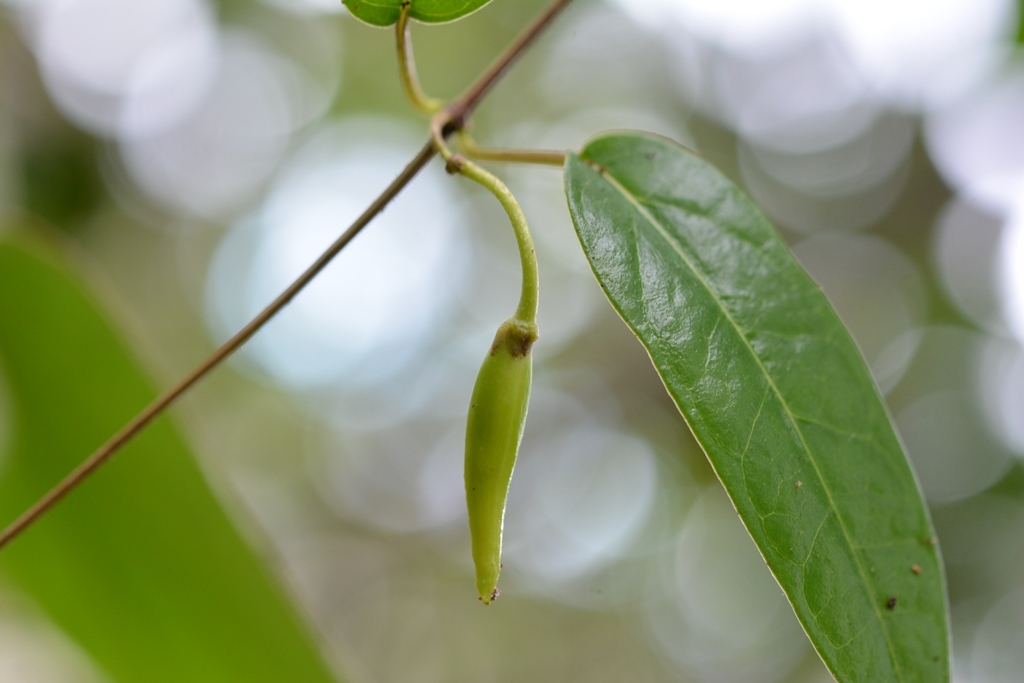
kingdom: Plantae
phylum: Tracheophyta
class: Magnoliopsida
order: Gentianales
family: Apocynaceae
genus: Ruehssia
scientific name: Ruehssia sumiderensis
